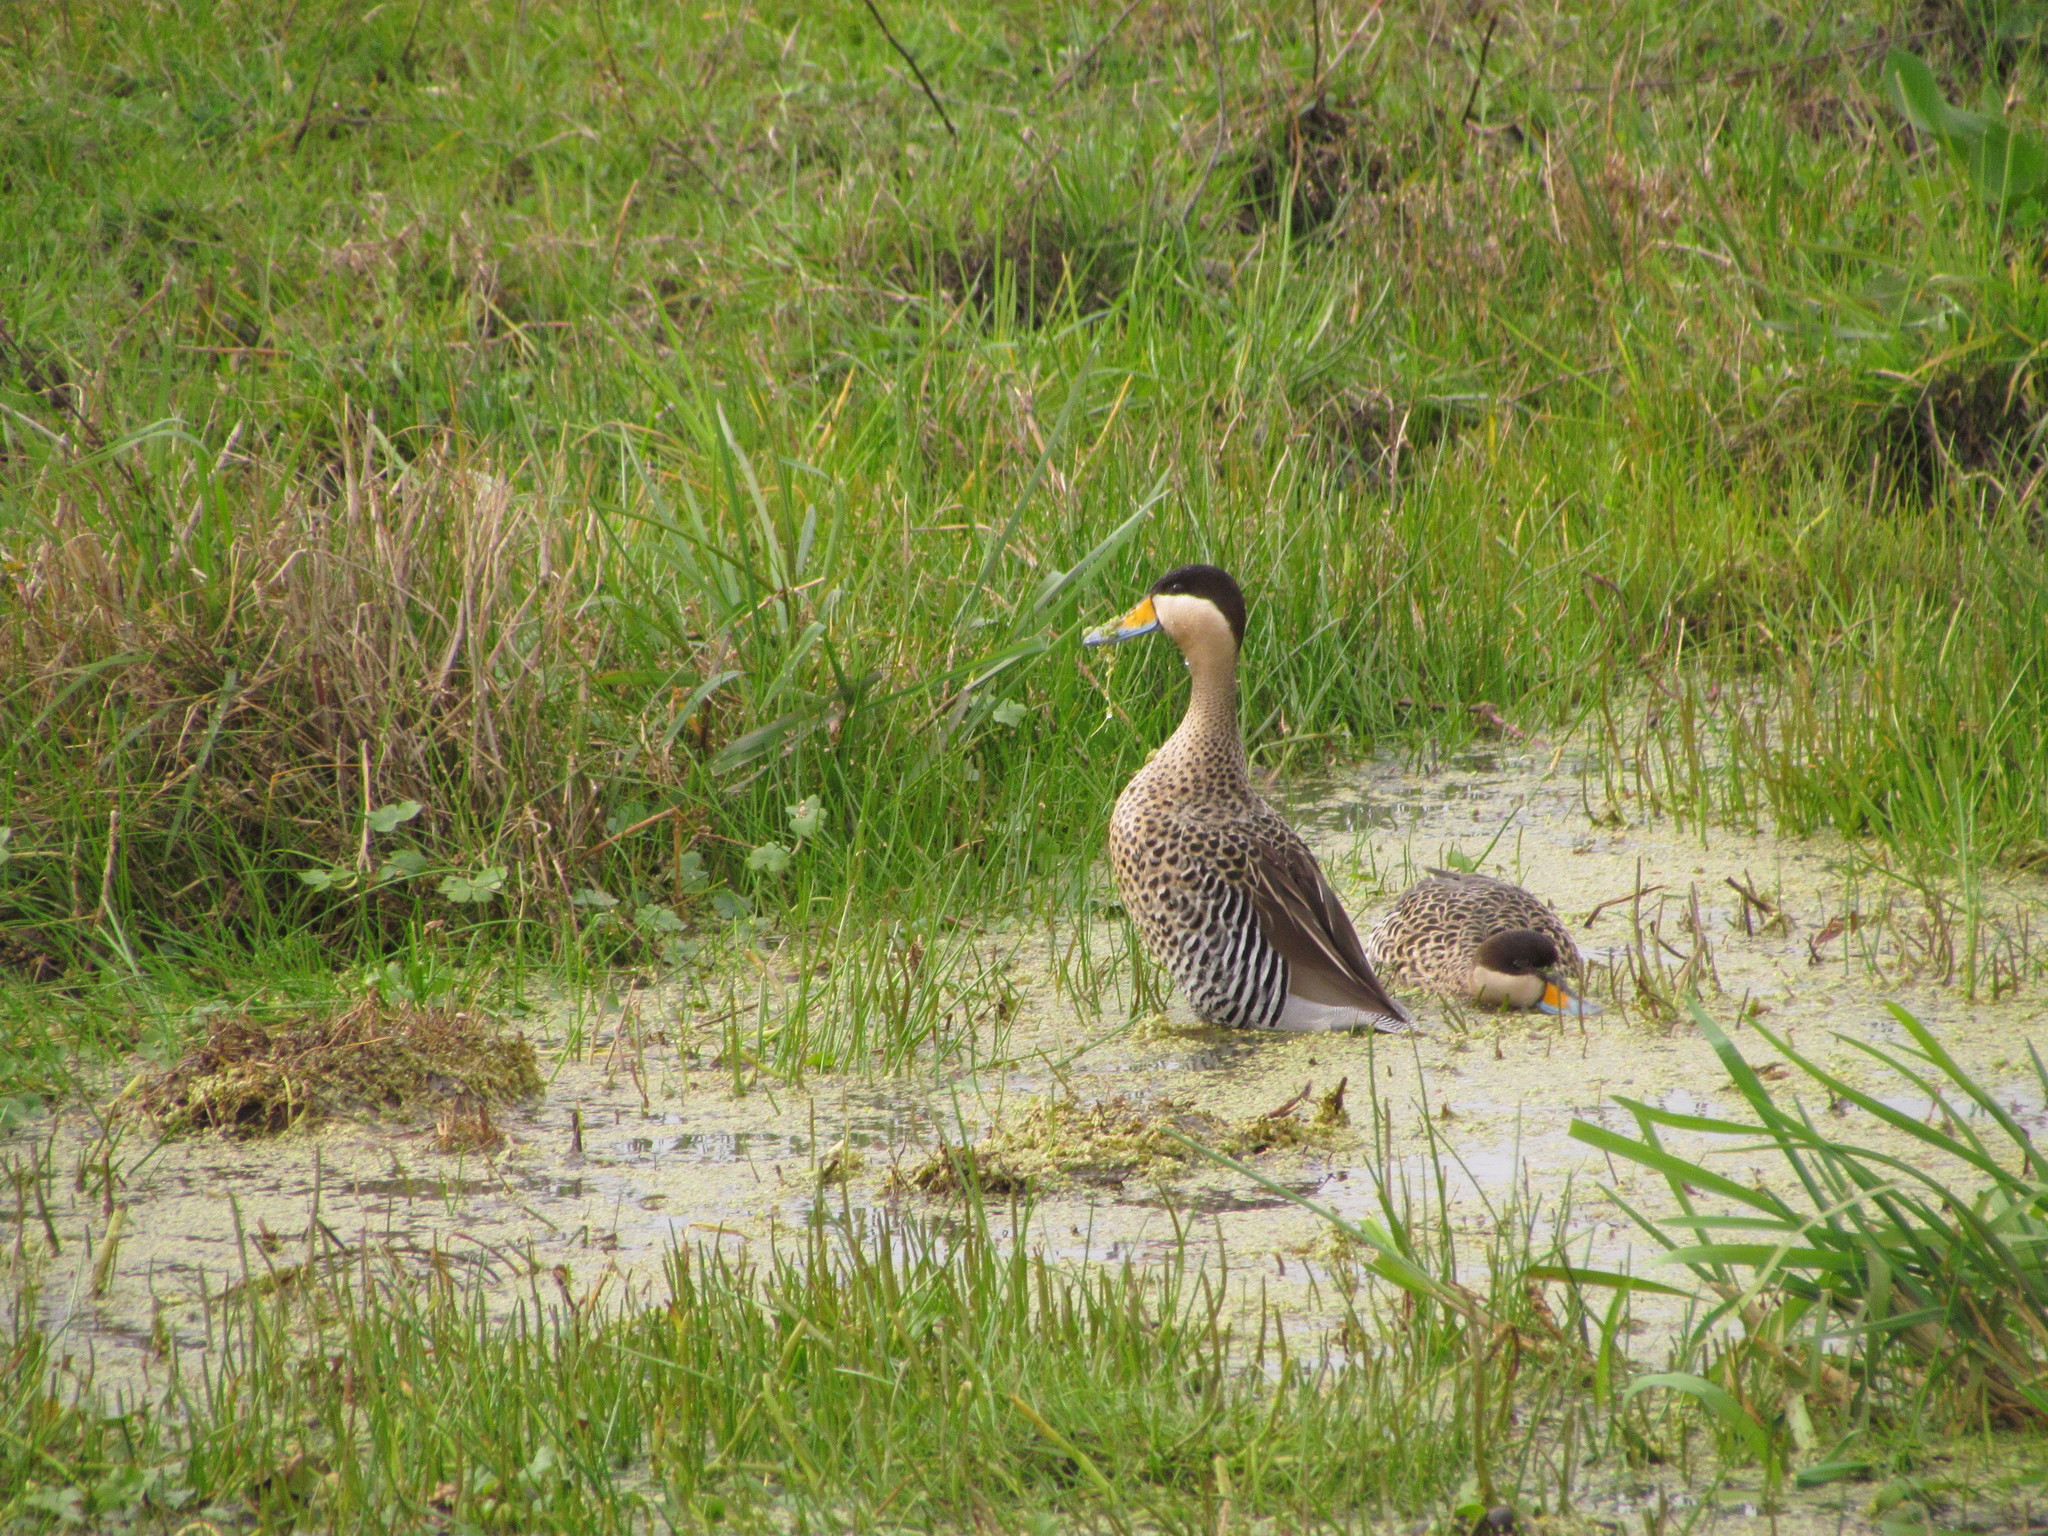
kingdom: Animalia
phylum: Chordata
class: Aves
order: Anseriformes
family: Anatidae
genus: Spatula
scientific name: Spatula versicolor
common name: Silver teal
